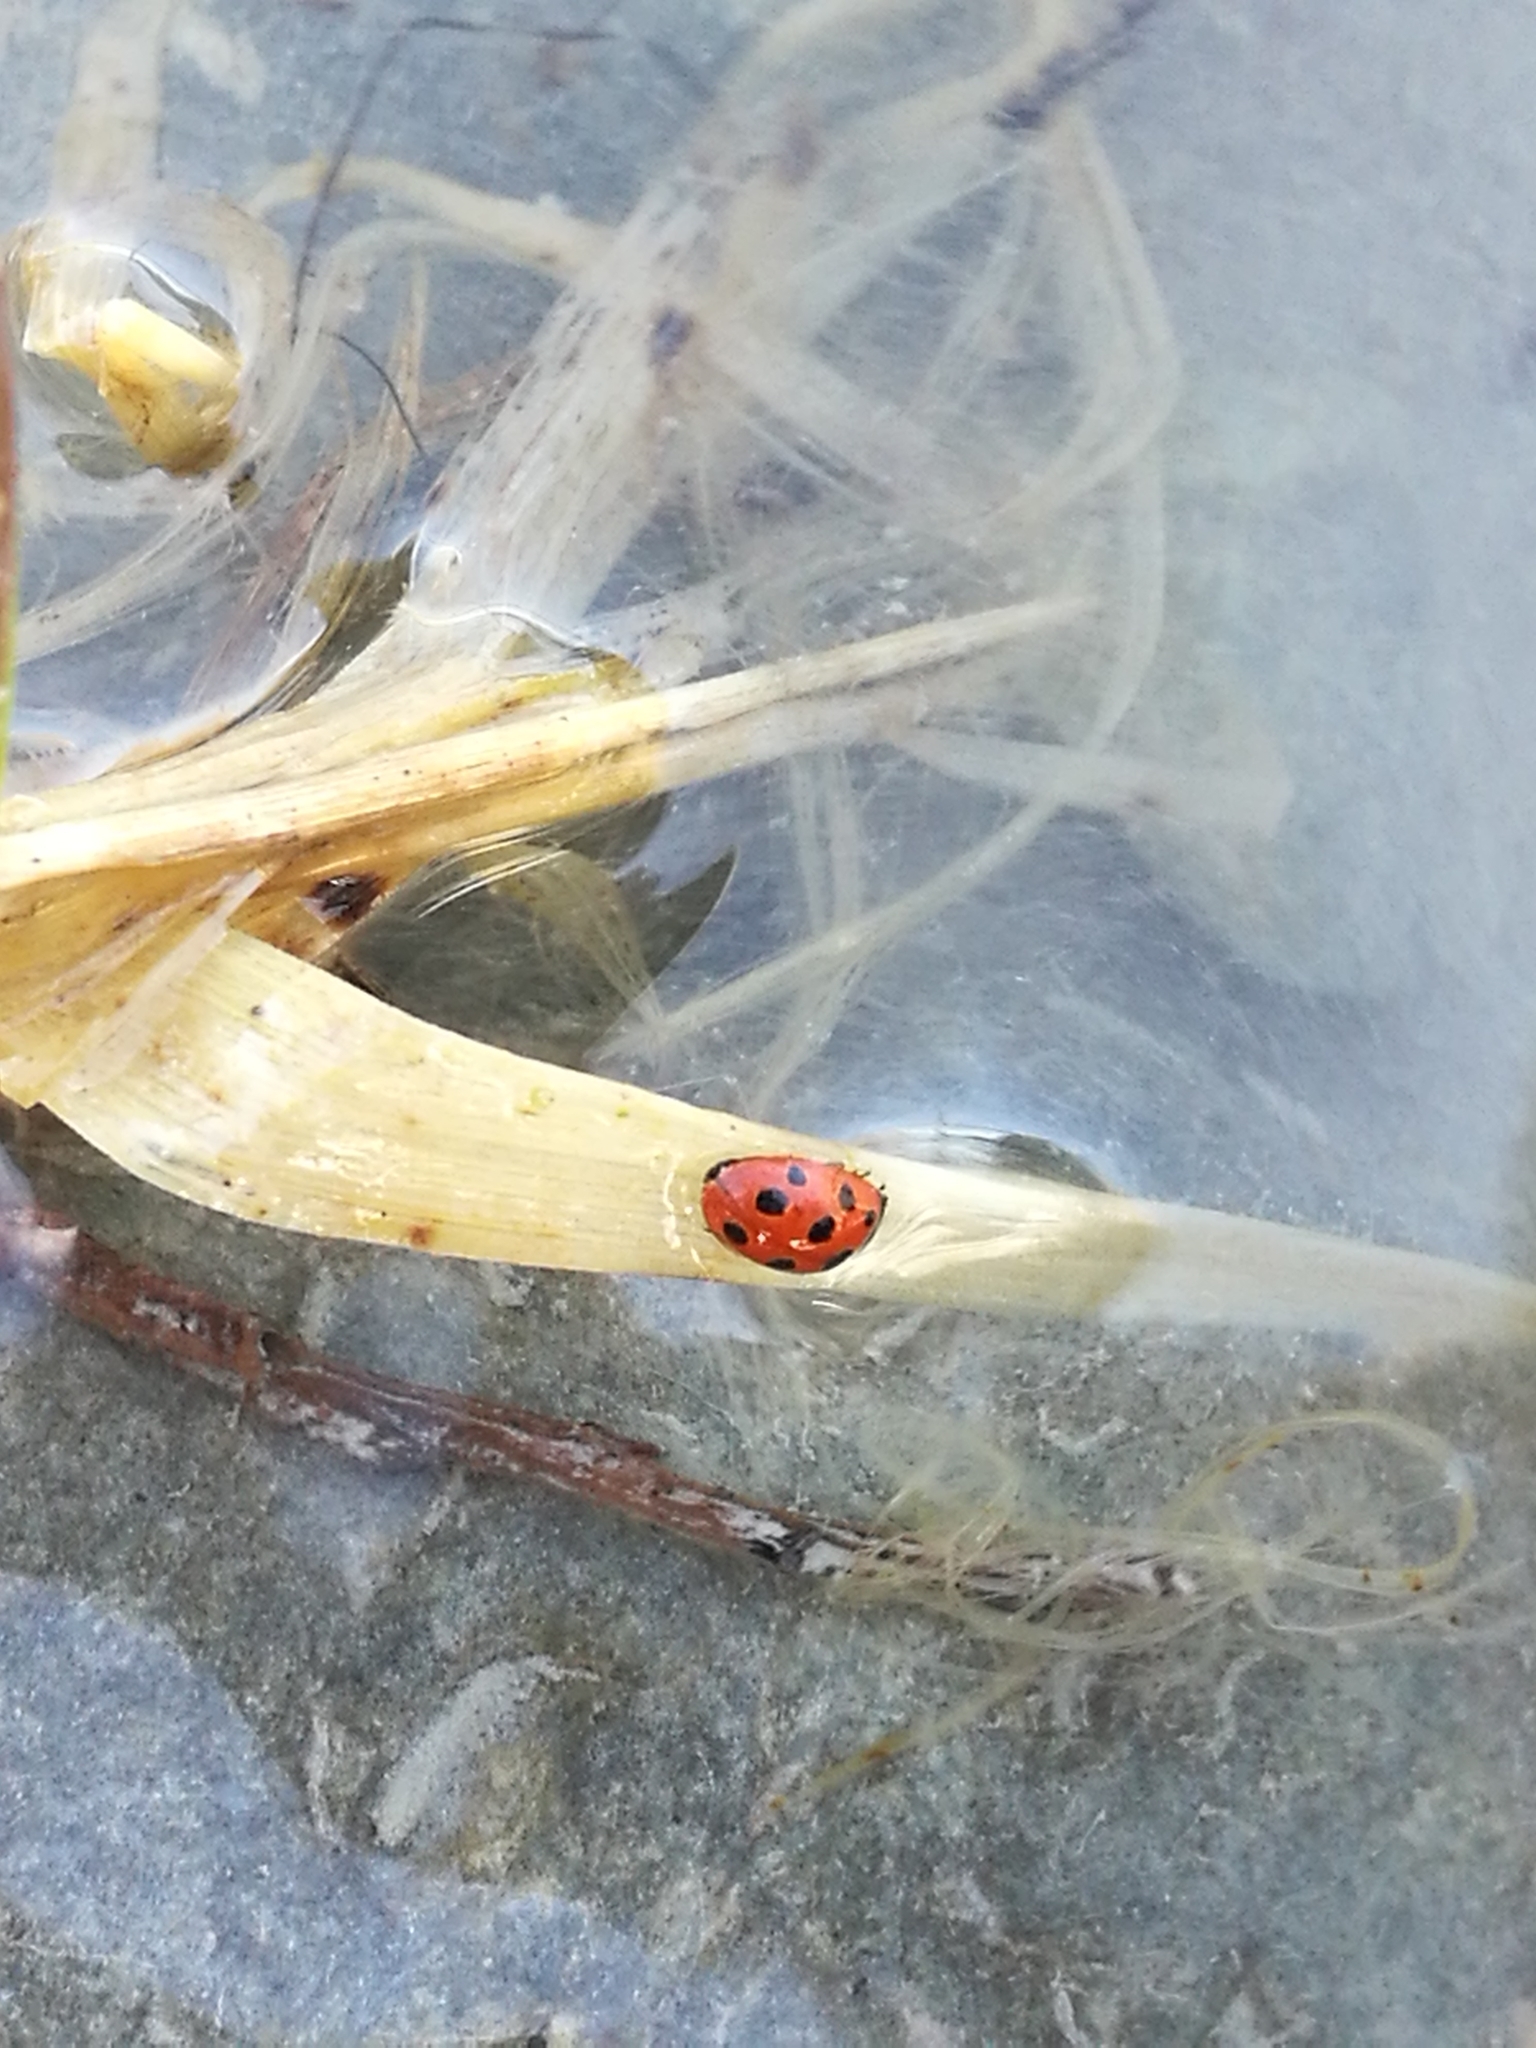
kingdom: Animalia
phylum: Arthropoda
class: Insecta
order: Coleoptera
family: Coccinellidae
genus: Coccinella
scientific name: Coccinella undecimpunctata
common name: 11-spot ladybird
